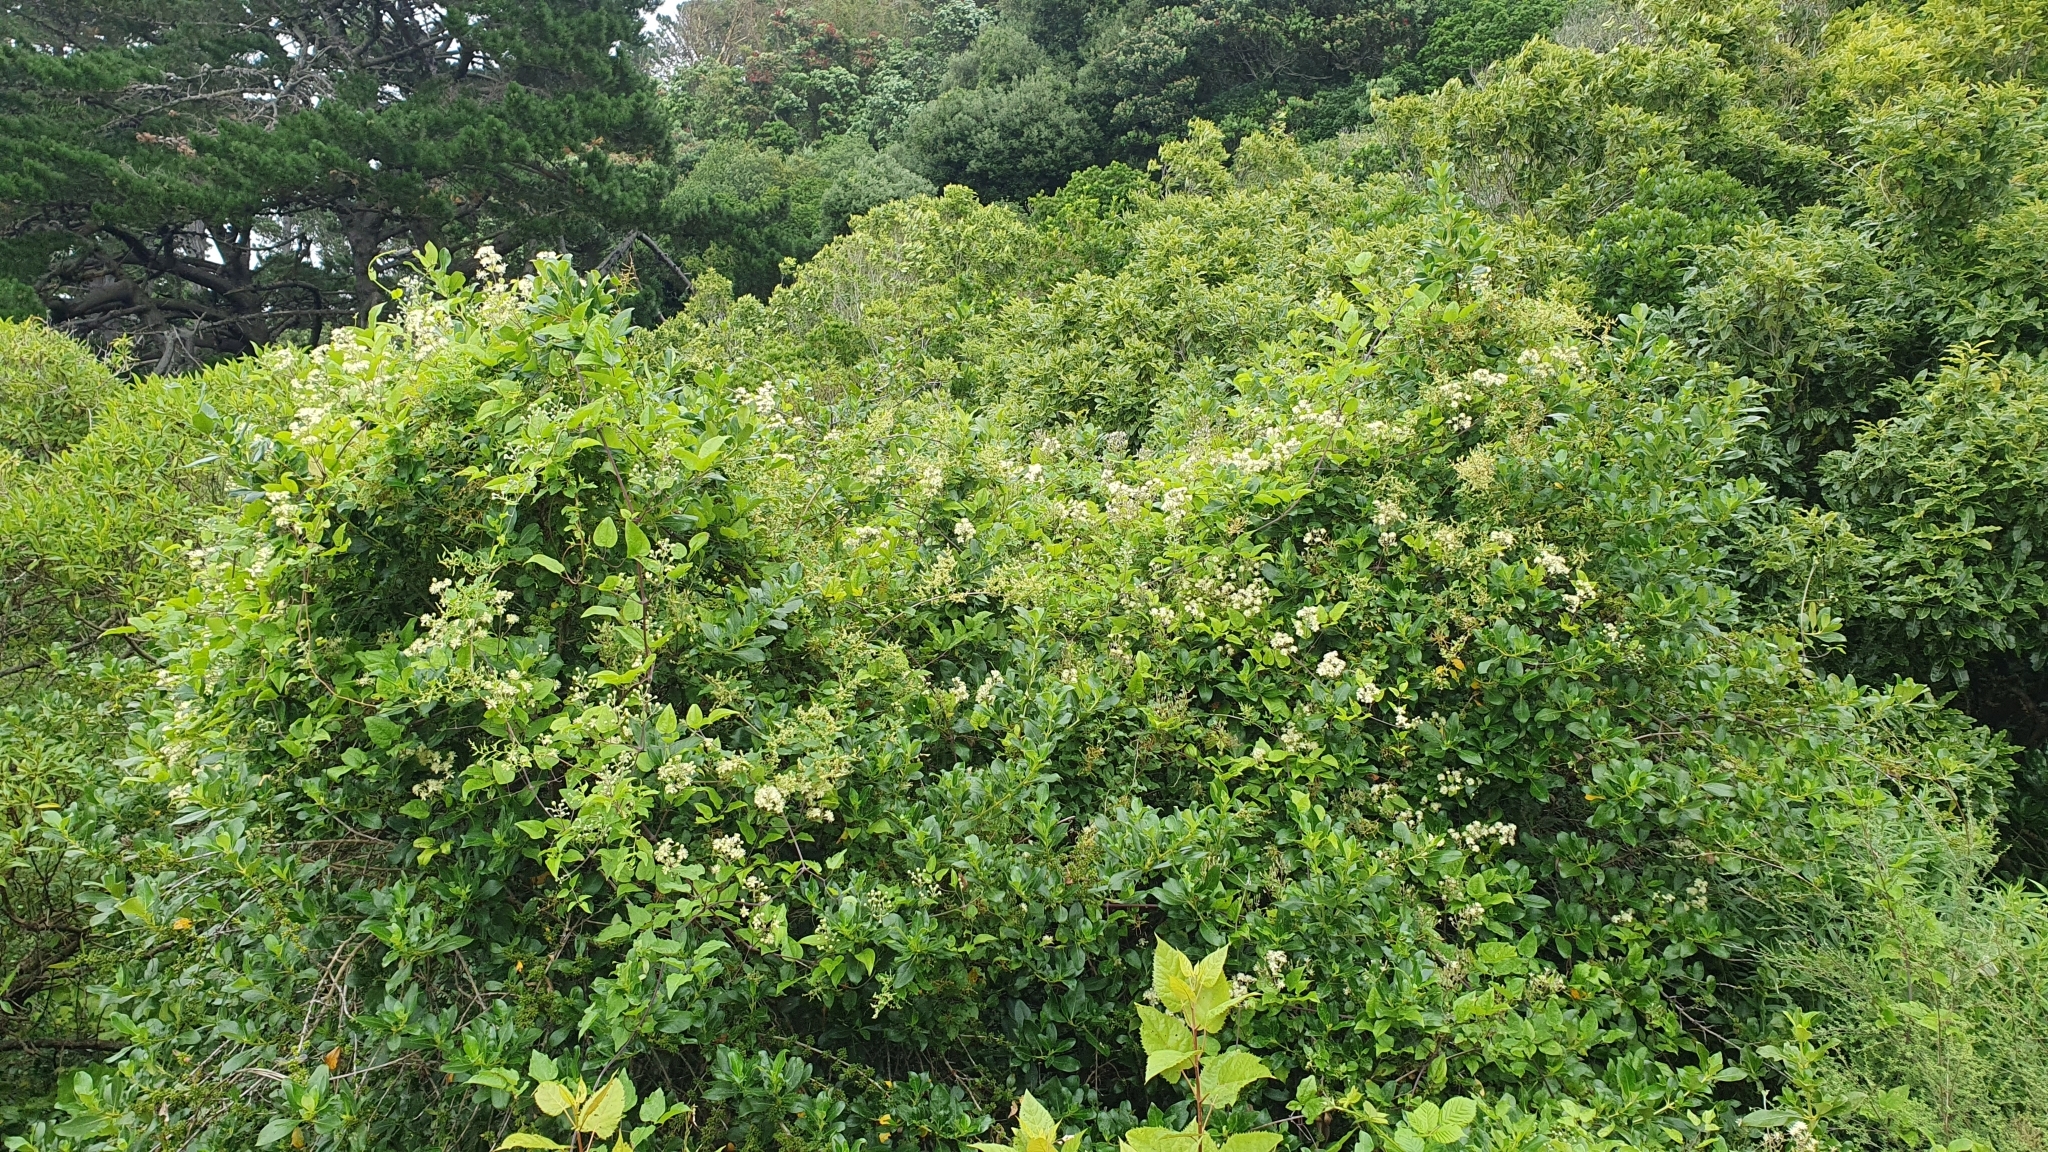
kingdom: Plantae
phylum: Tracheophyta
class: Magnoliopsida
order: Ranunculales
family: Ranunculaceae
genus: Clematis
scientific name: Clematis vitalba
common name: Evergreen clematis
